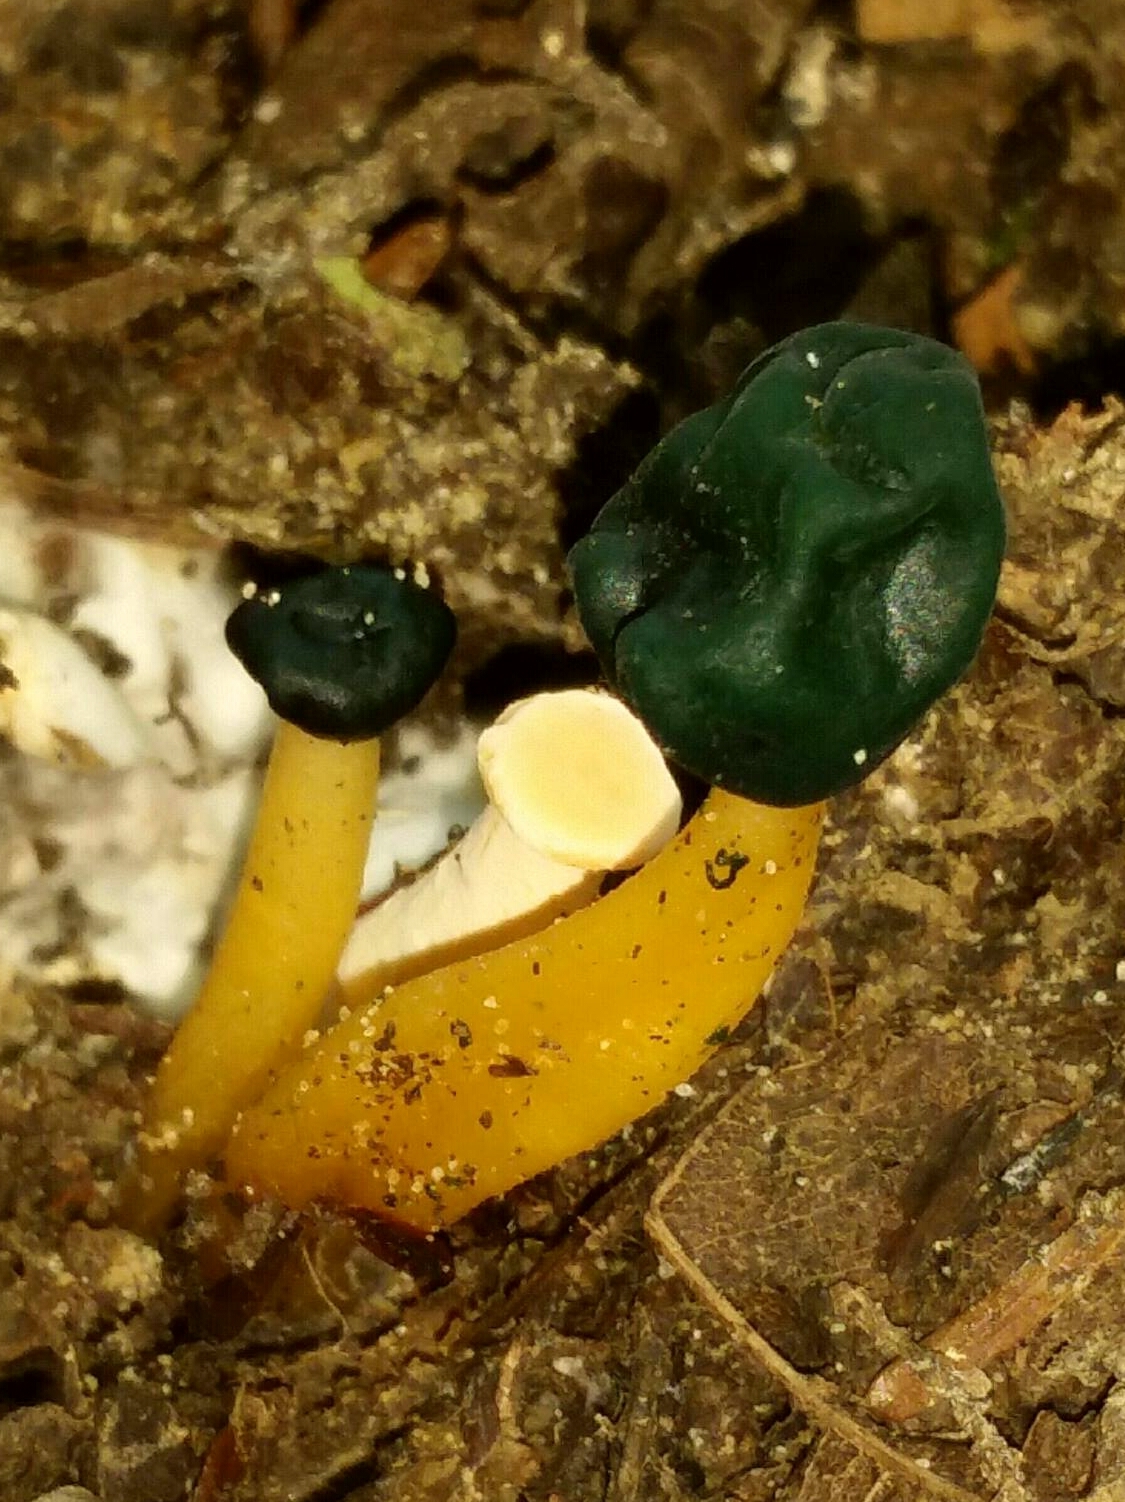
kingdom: Fungi
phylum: Ascomycota
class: Leotiomycetes
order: Leotiales
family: Leotiaceae
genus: Leotia
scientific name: Leotia lubrica
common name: Jellybaby
